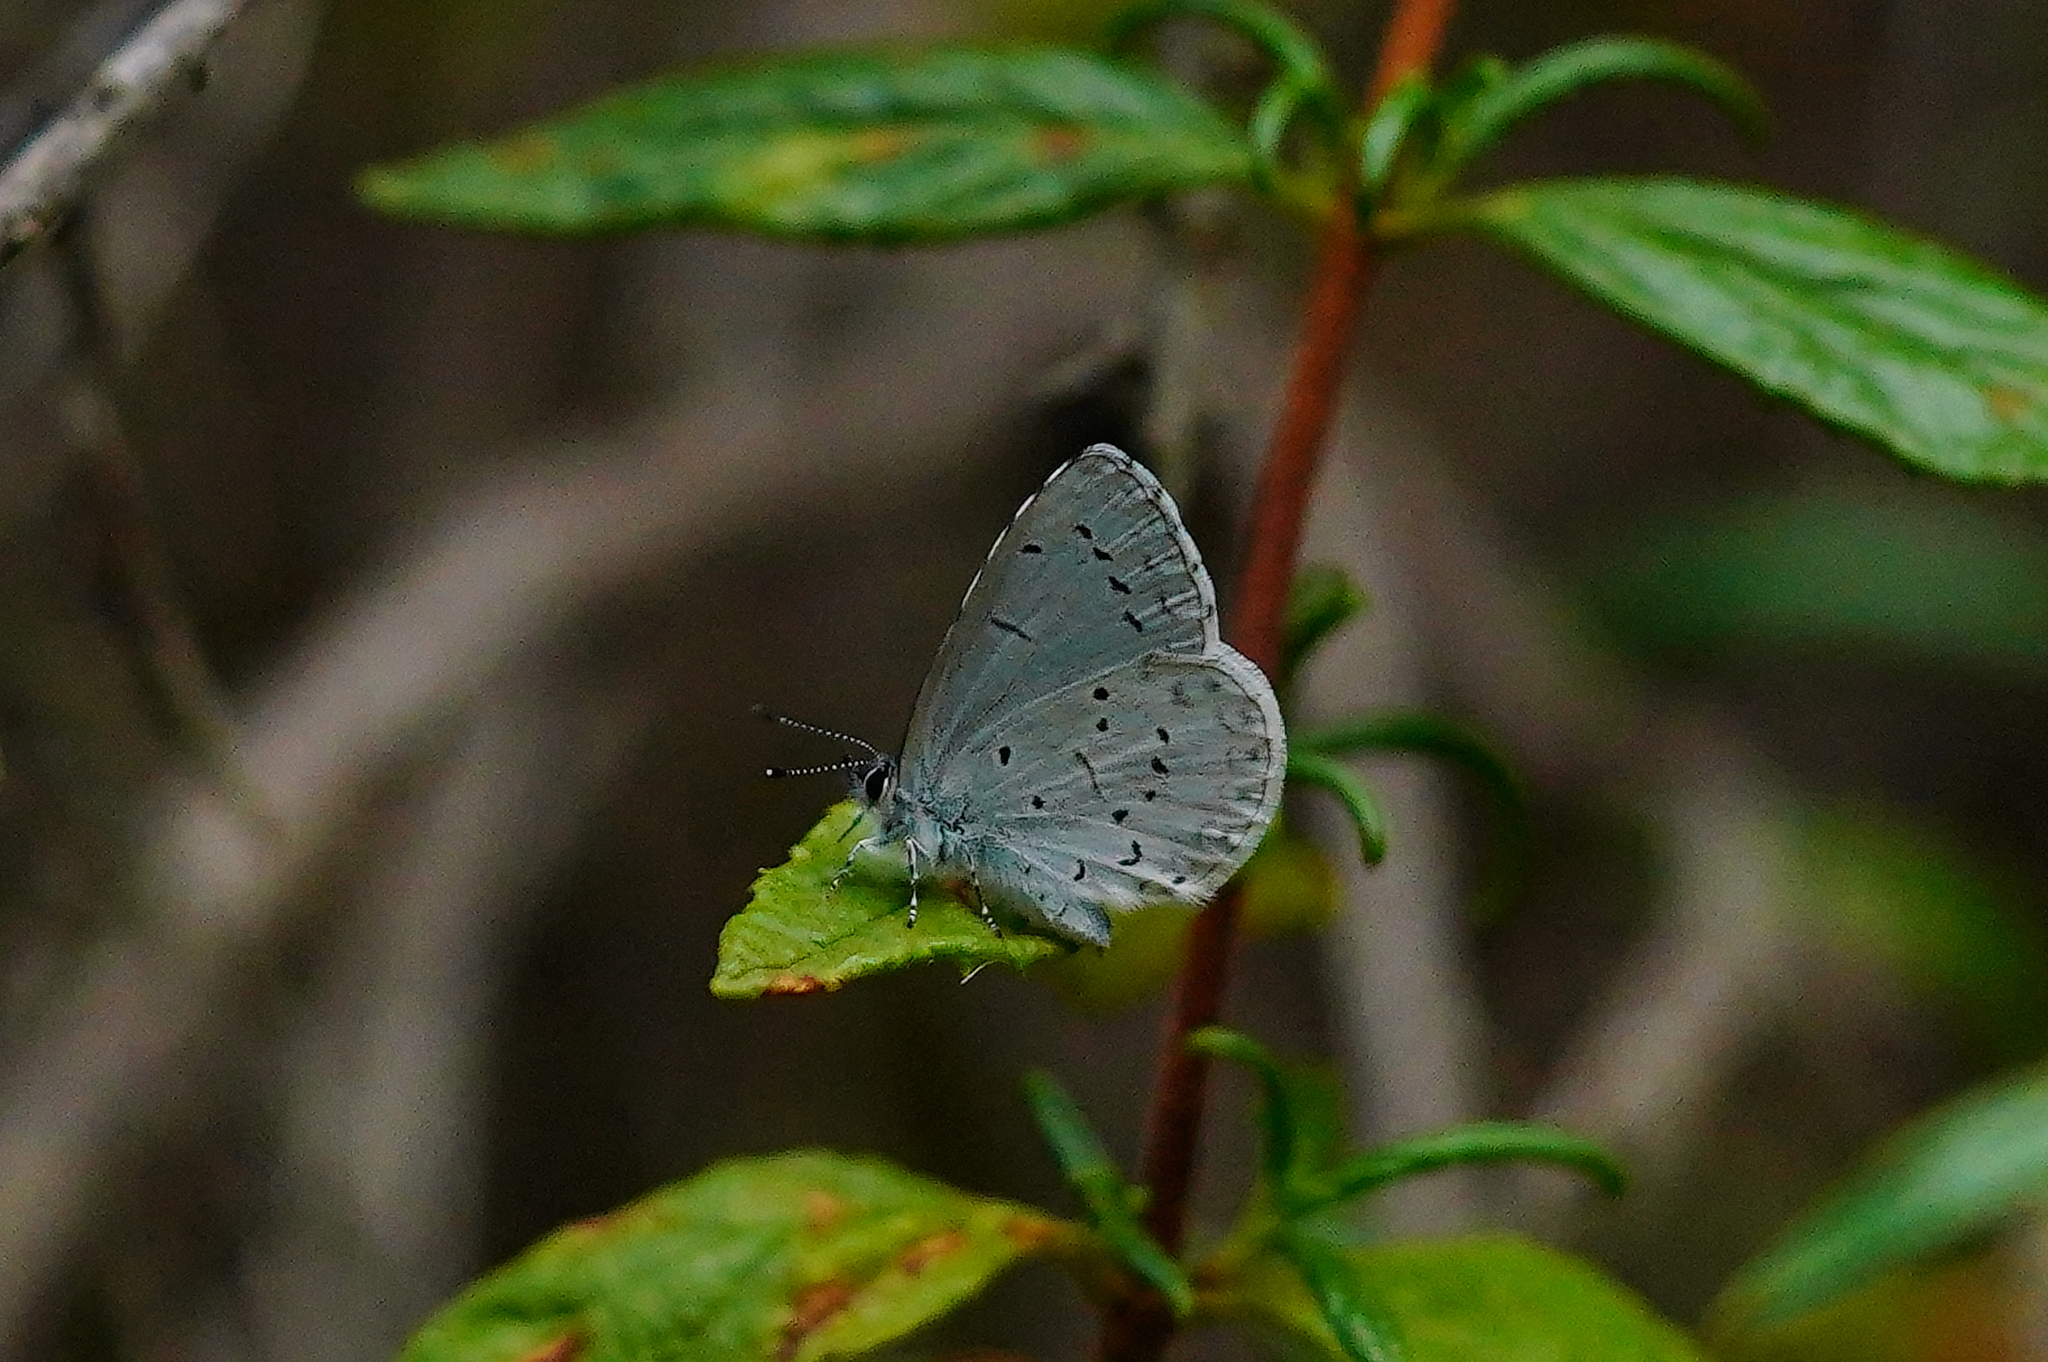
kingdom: Animalia
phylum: Arthropoda
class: Insecta
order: Lepidoptera
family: Lycaenidae
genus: Celastrina
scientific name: Celastrina ladon
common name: Spring azure
